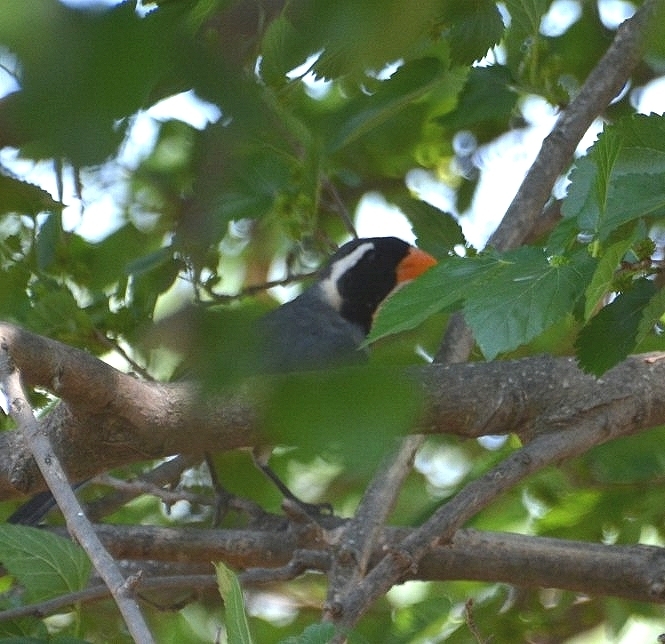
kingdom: Animalia
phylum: Chordata
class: Aves
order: Passeriformes
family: Thraupidae
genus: Saltator
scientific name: Saltator aurantiirostris
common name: Golden-billed saltator
